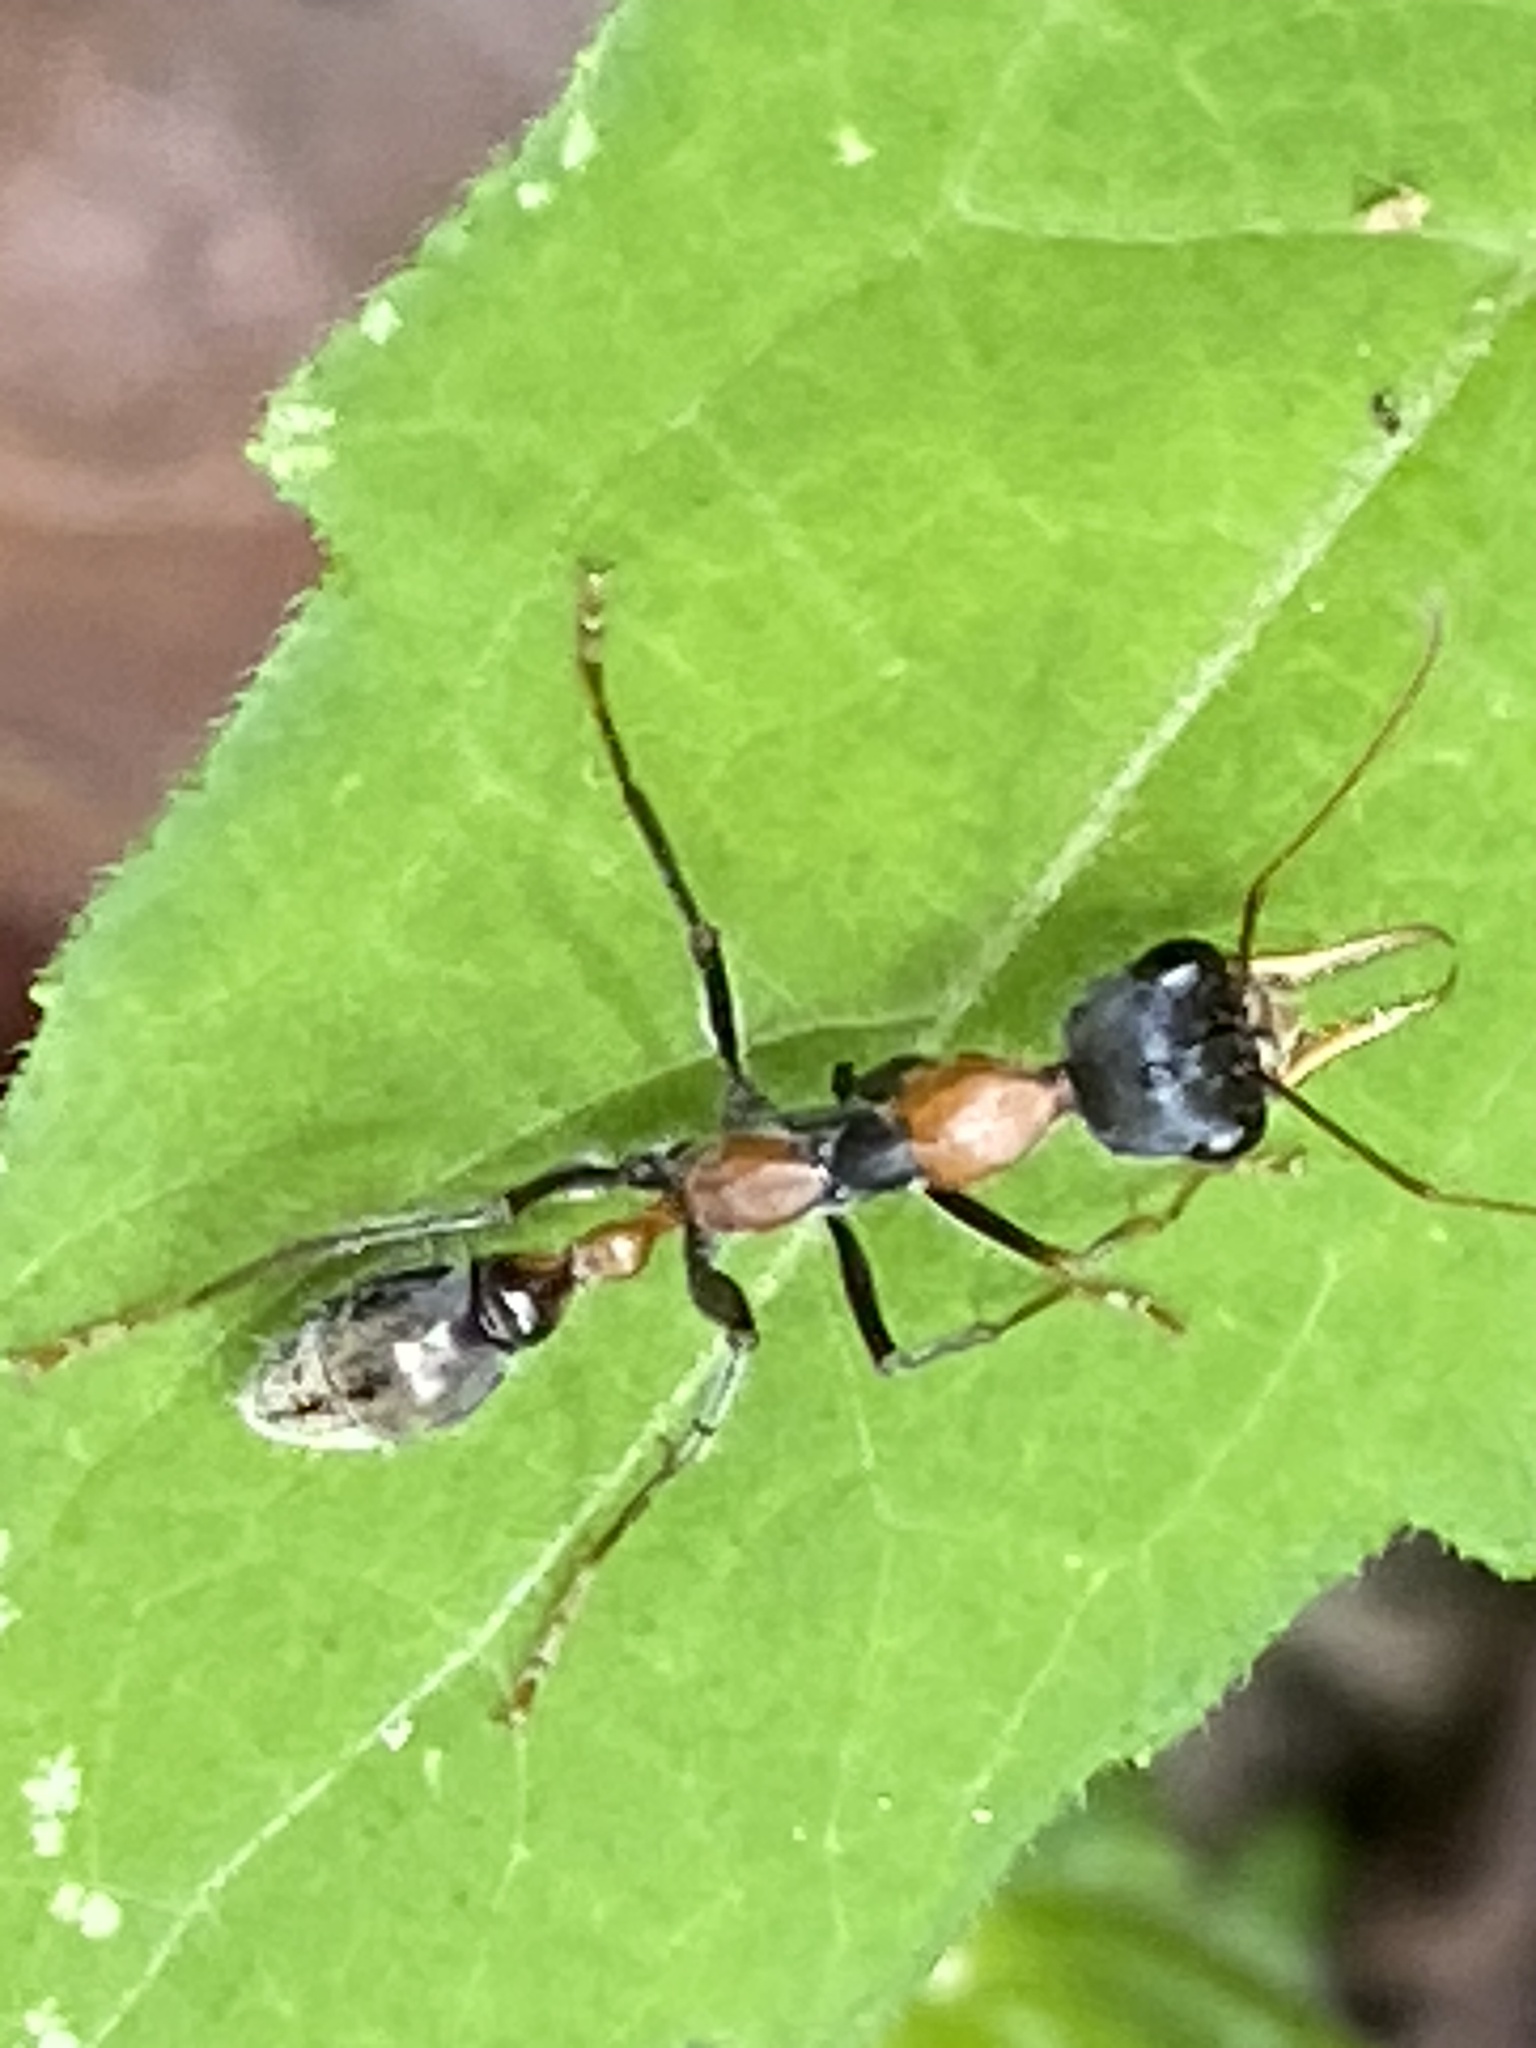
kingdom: Animalia
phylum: Arthropoda
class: Insecta
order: Hymenoptera
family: Formicidae
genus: Myrmecia
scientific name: Myrmecia nigrocincta
